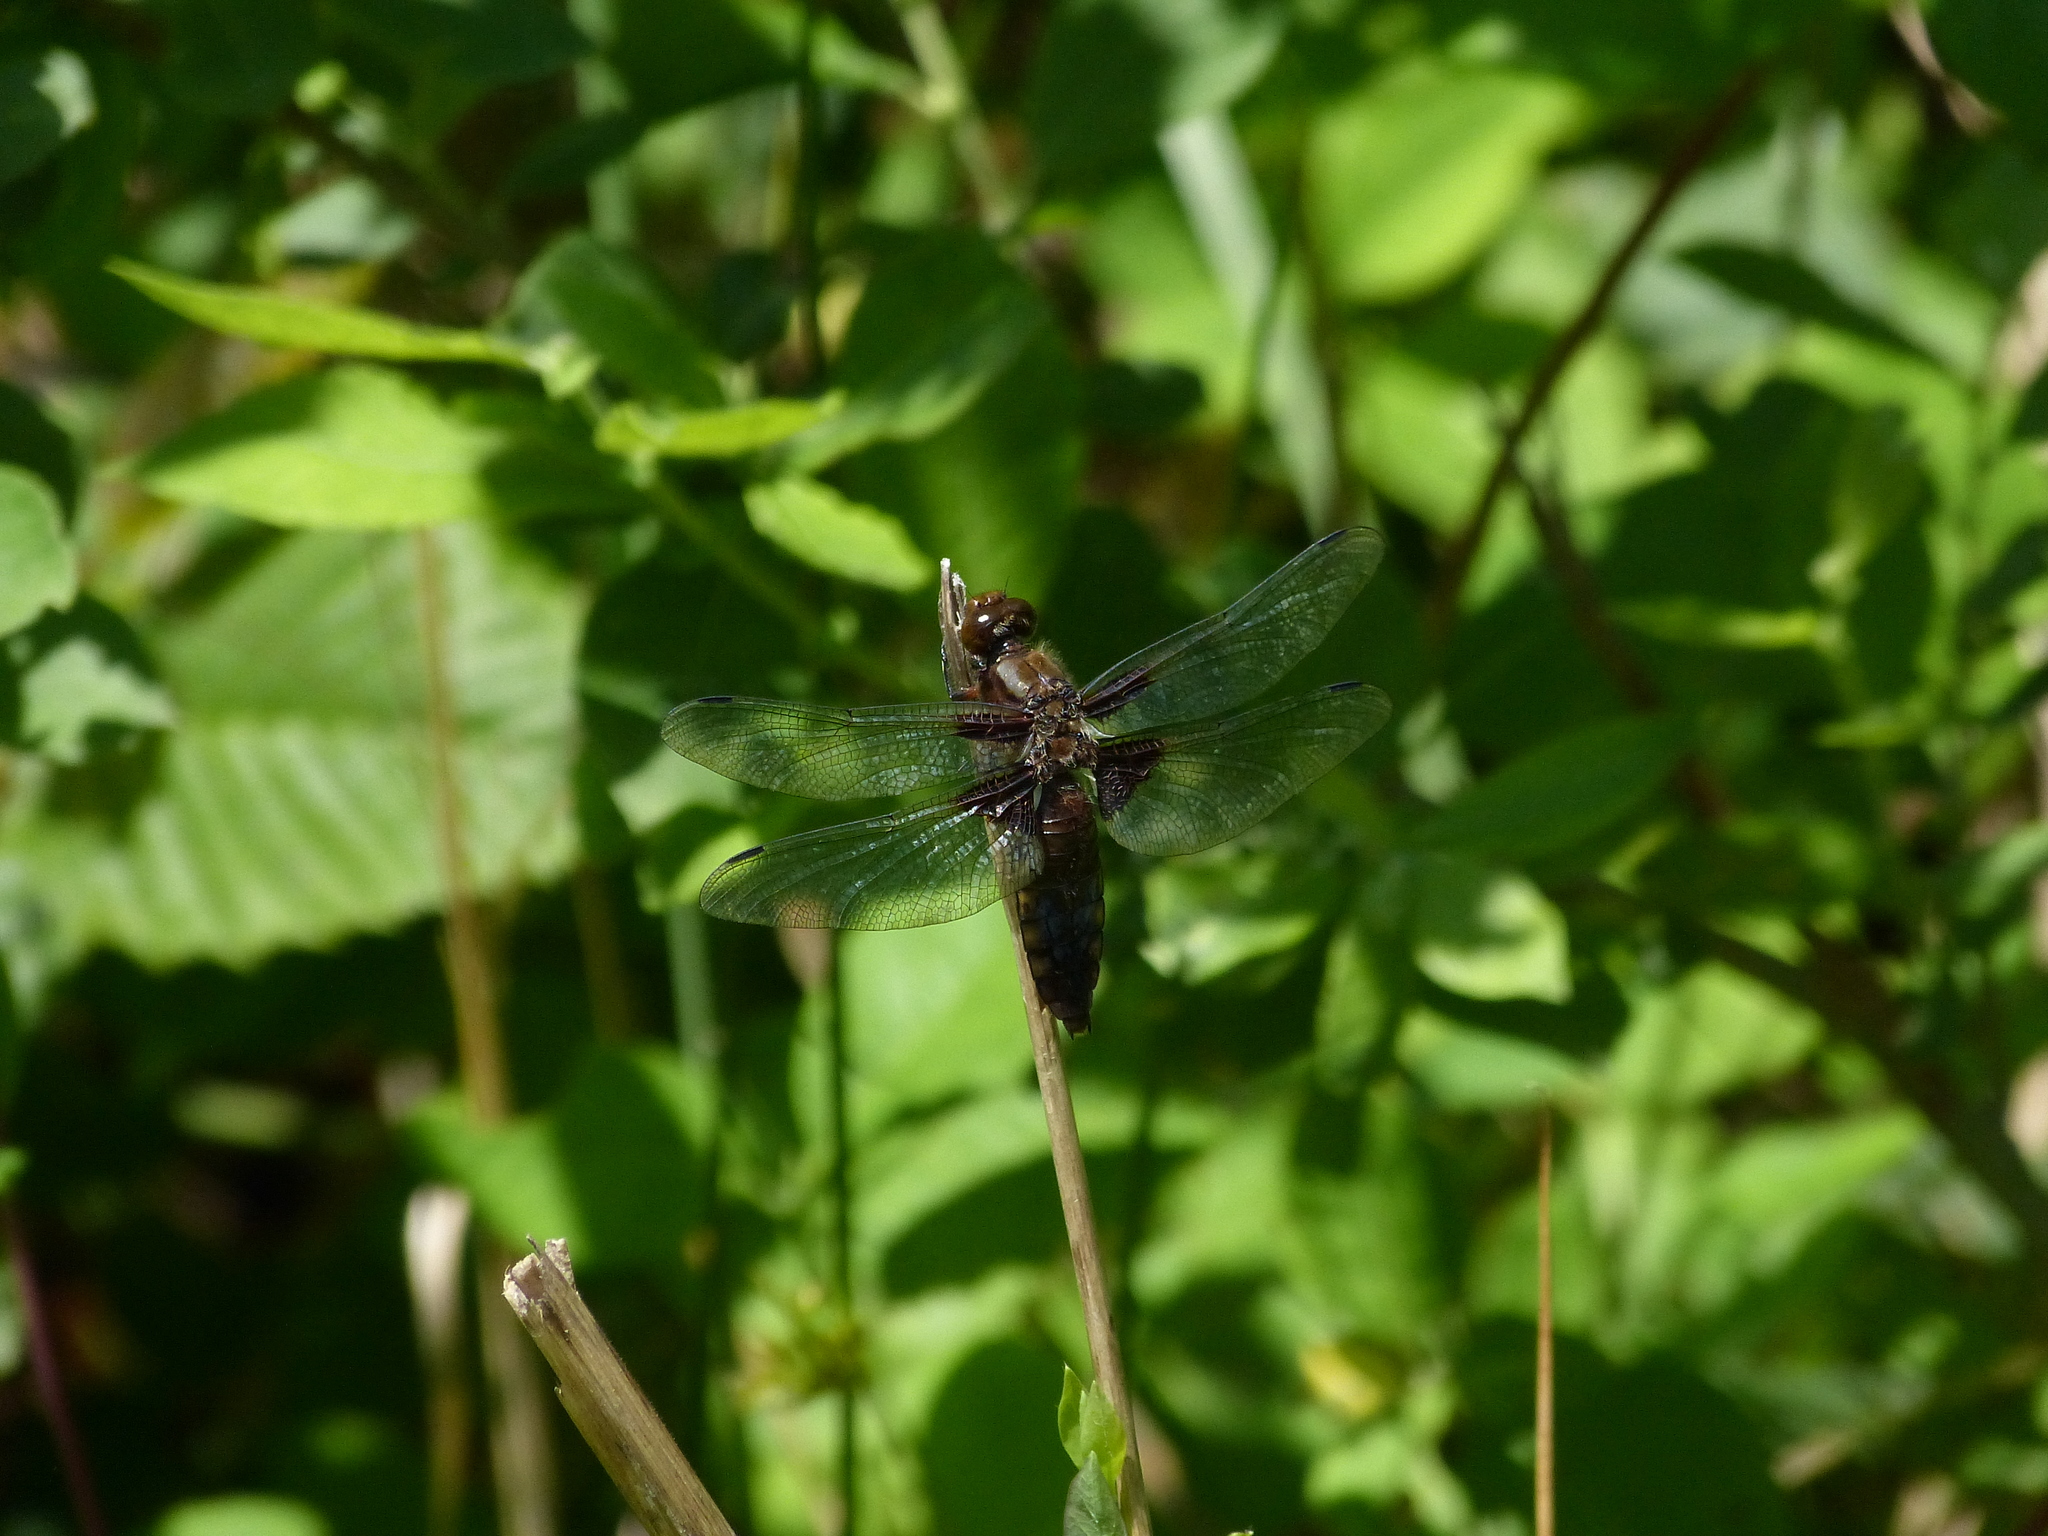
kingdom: Animalia
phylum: Arthropoda
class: Insecta
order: Odonata
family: Libellulidae
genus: Libellula
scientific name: Libellula depressa
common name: Broad-bodied chaser
